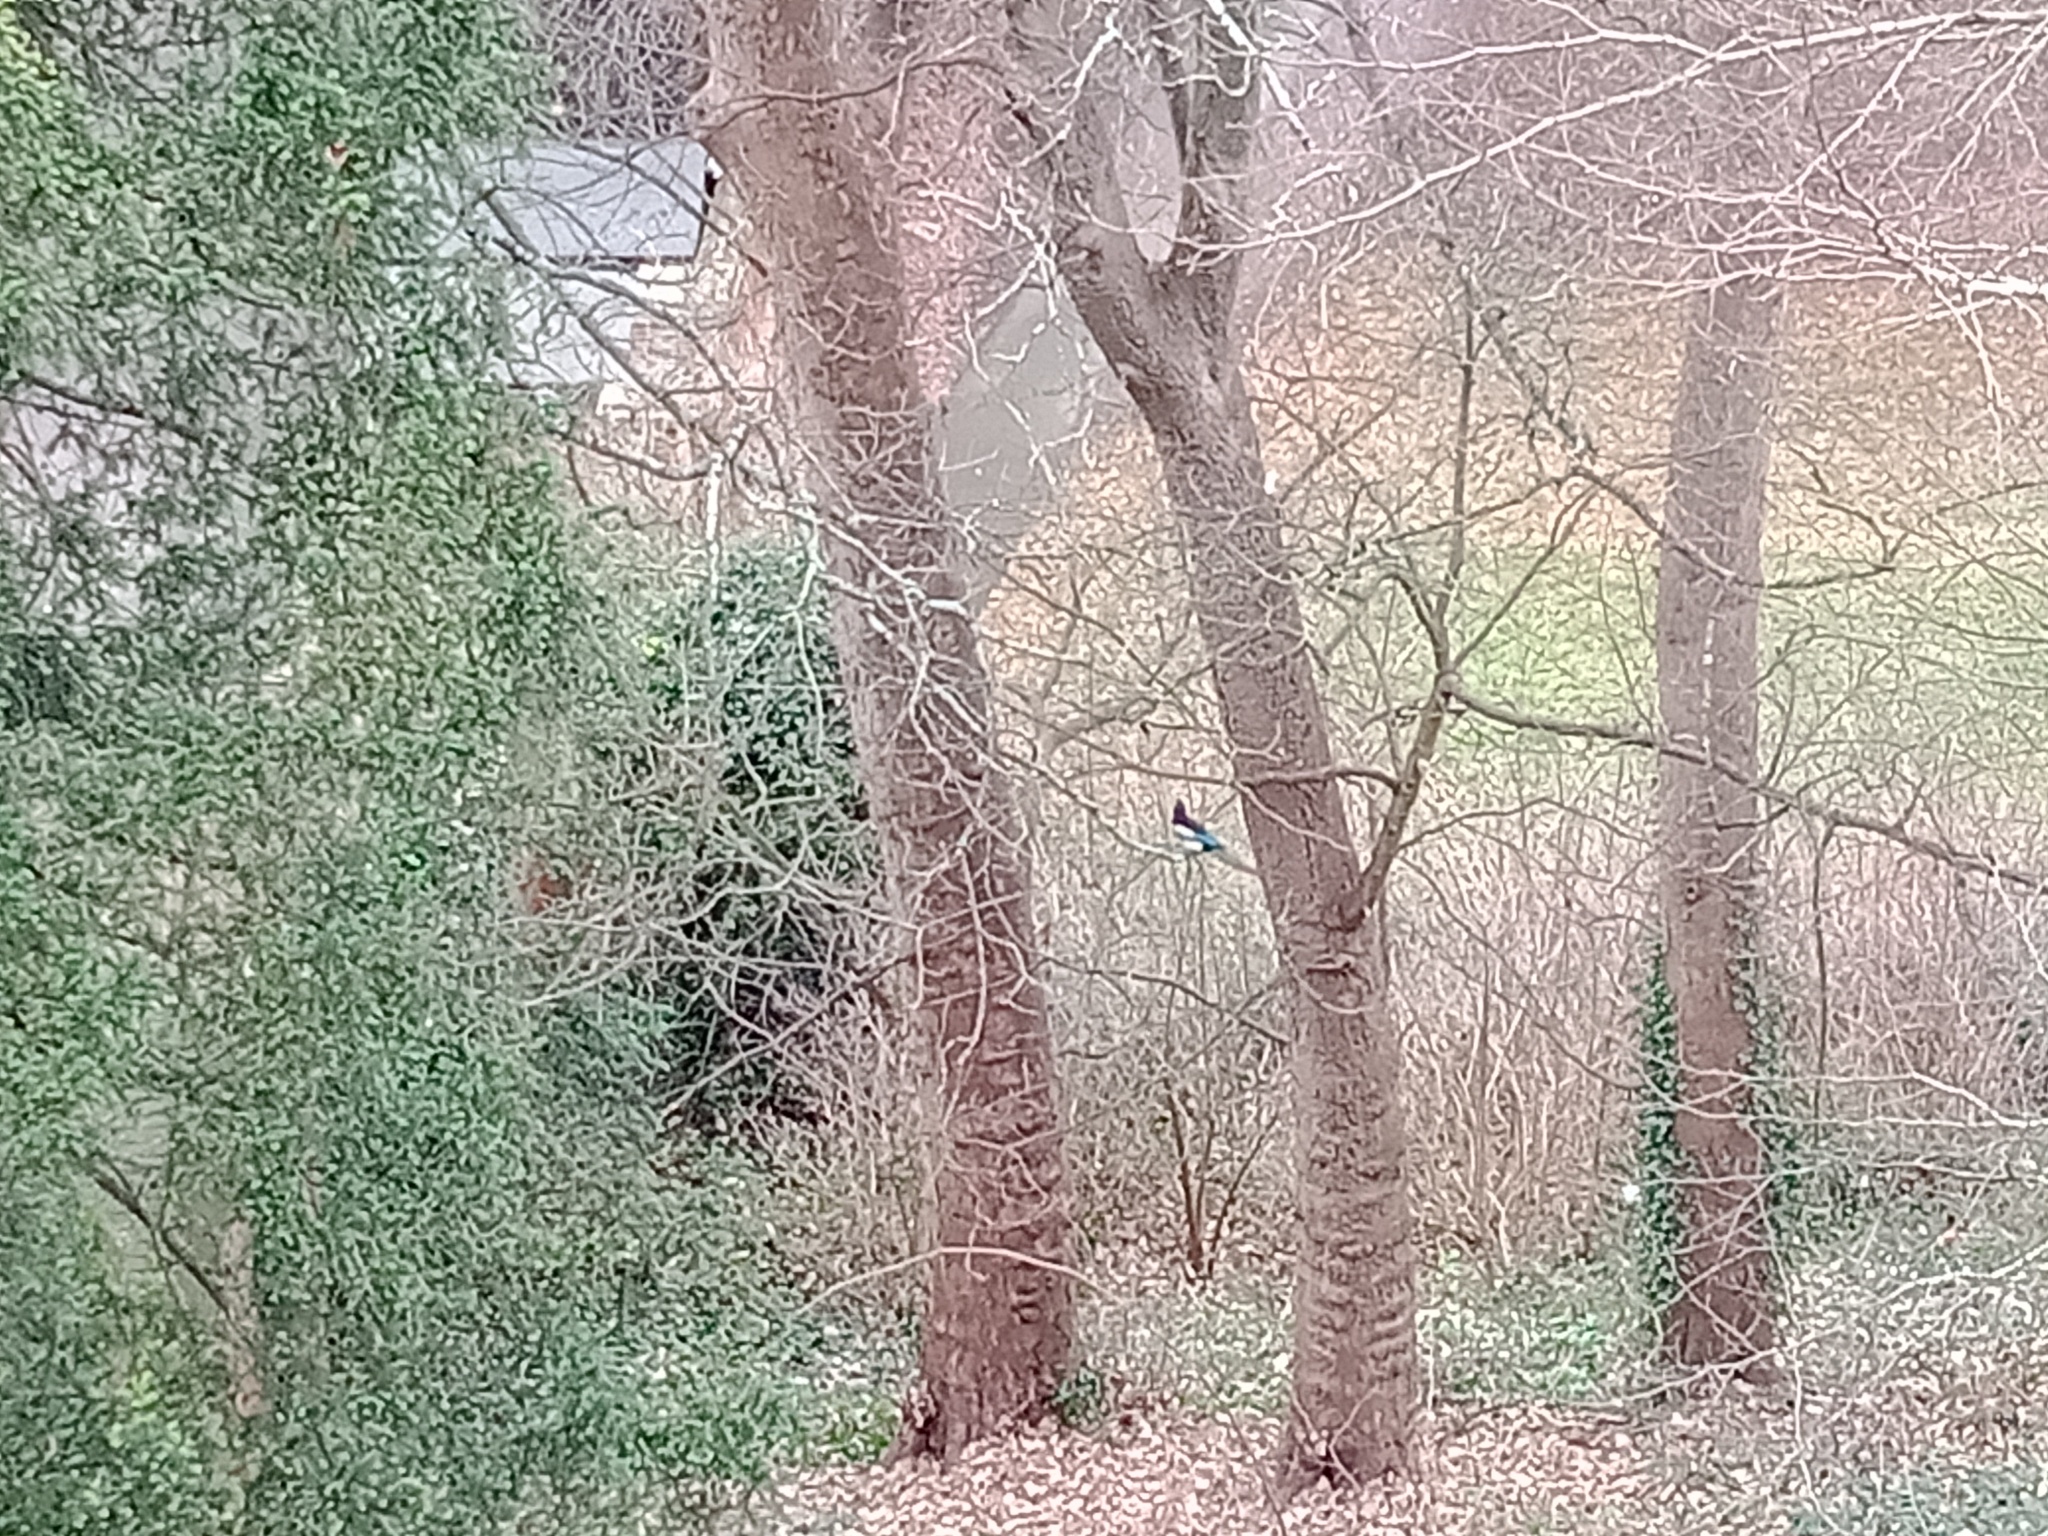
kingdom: Animalia
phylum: Chordata
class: Aves
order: Passeriformes
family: Corvidae
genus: Pica
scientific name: Pica pica
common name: Eurasian magpie
